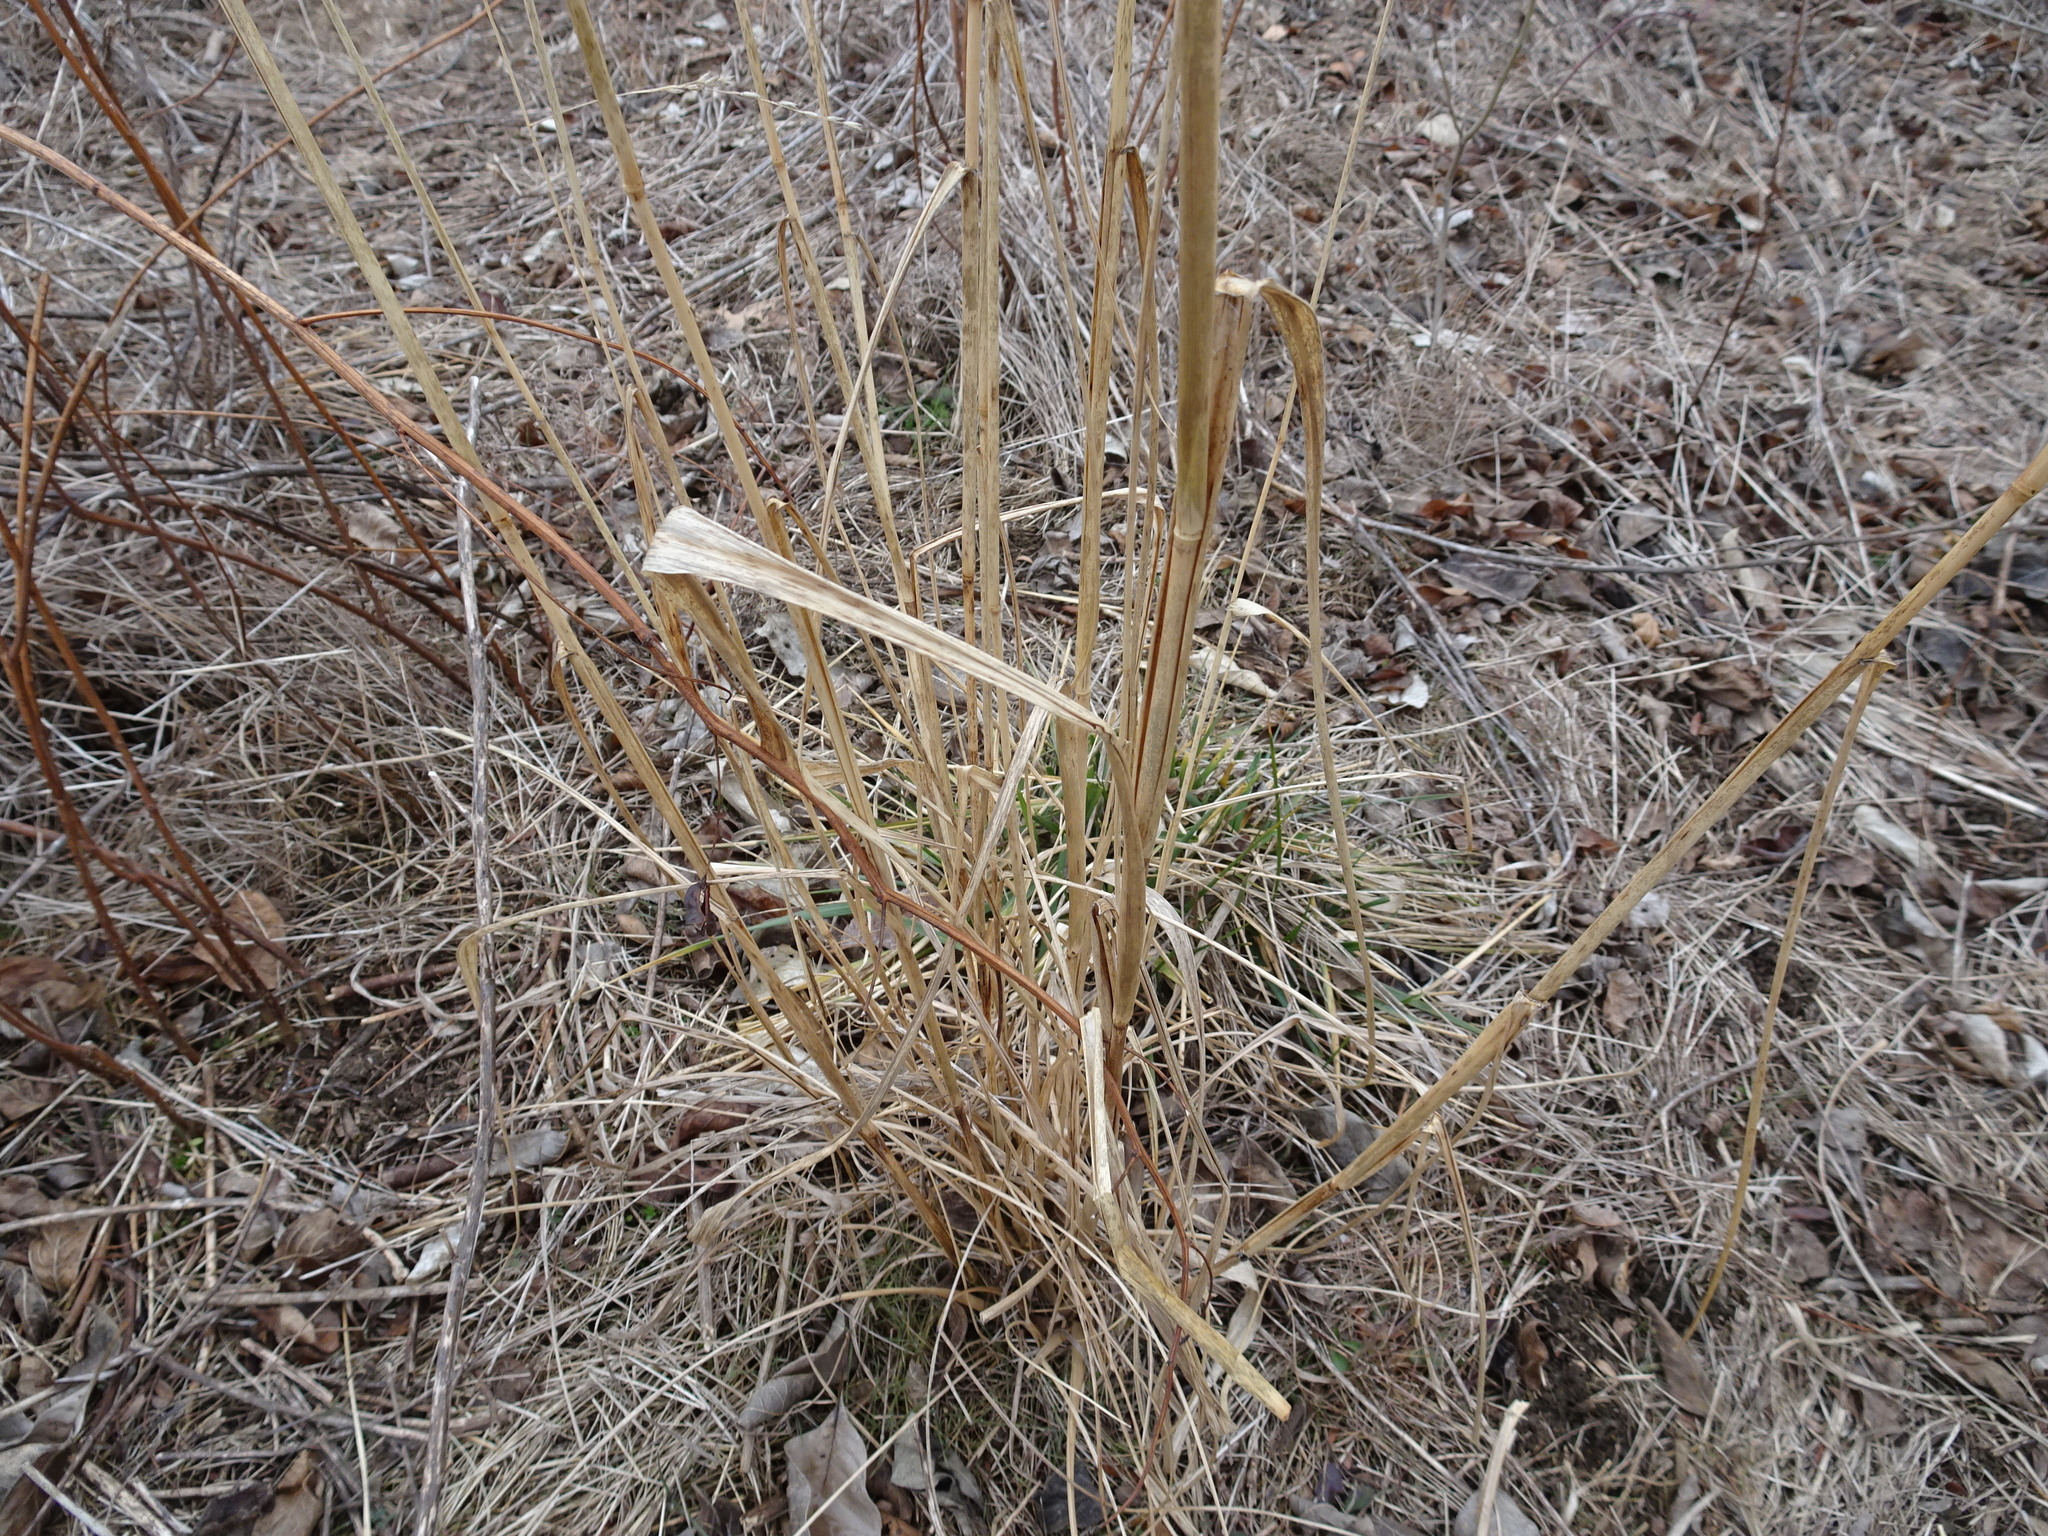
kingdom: Plantae
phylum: Tracheophyta
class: Liliopsida
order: Poales
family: Poaceae
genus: Tridens
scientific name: Tridens flavus
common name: Purpletop
